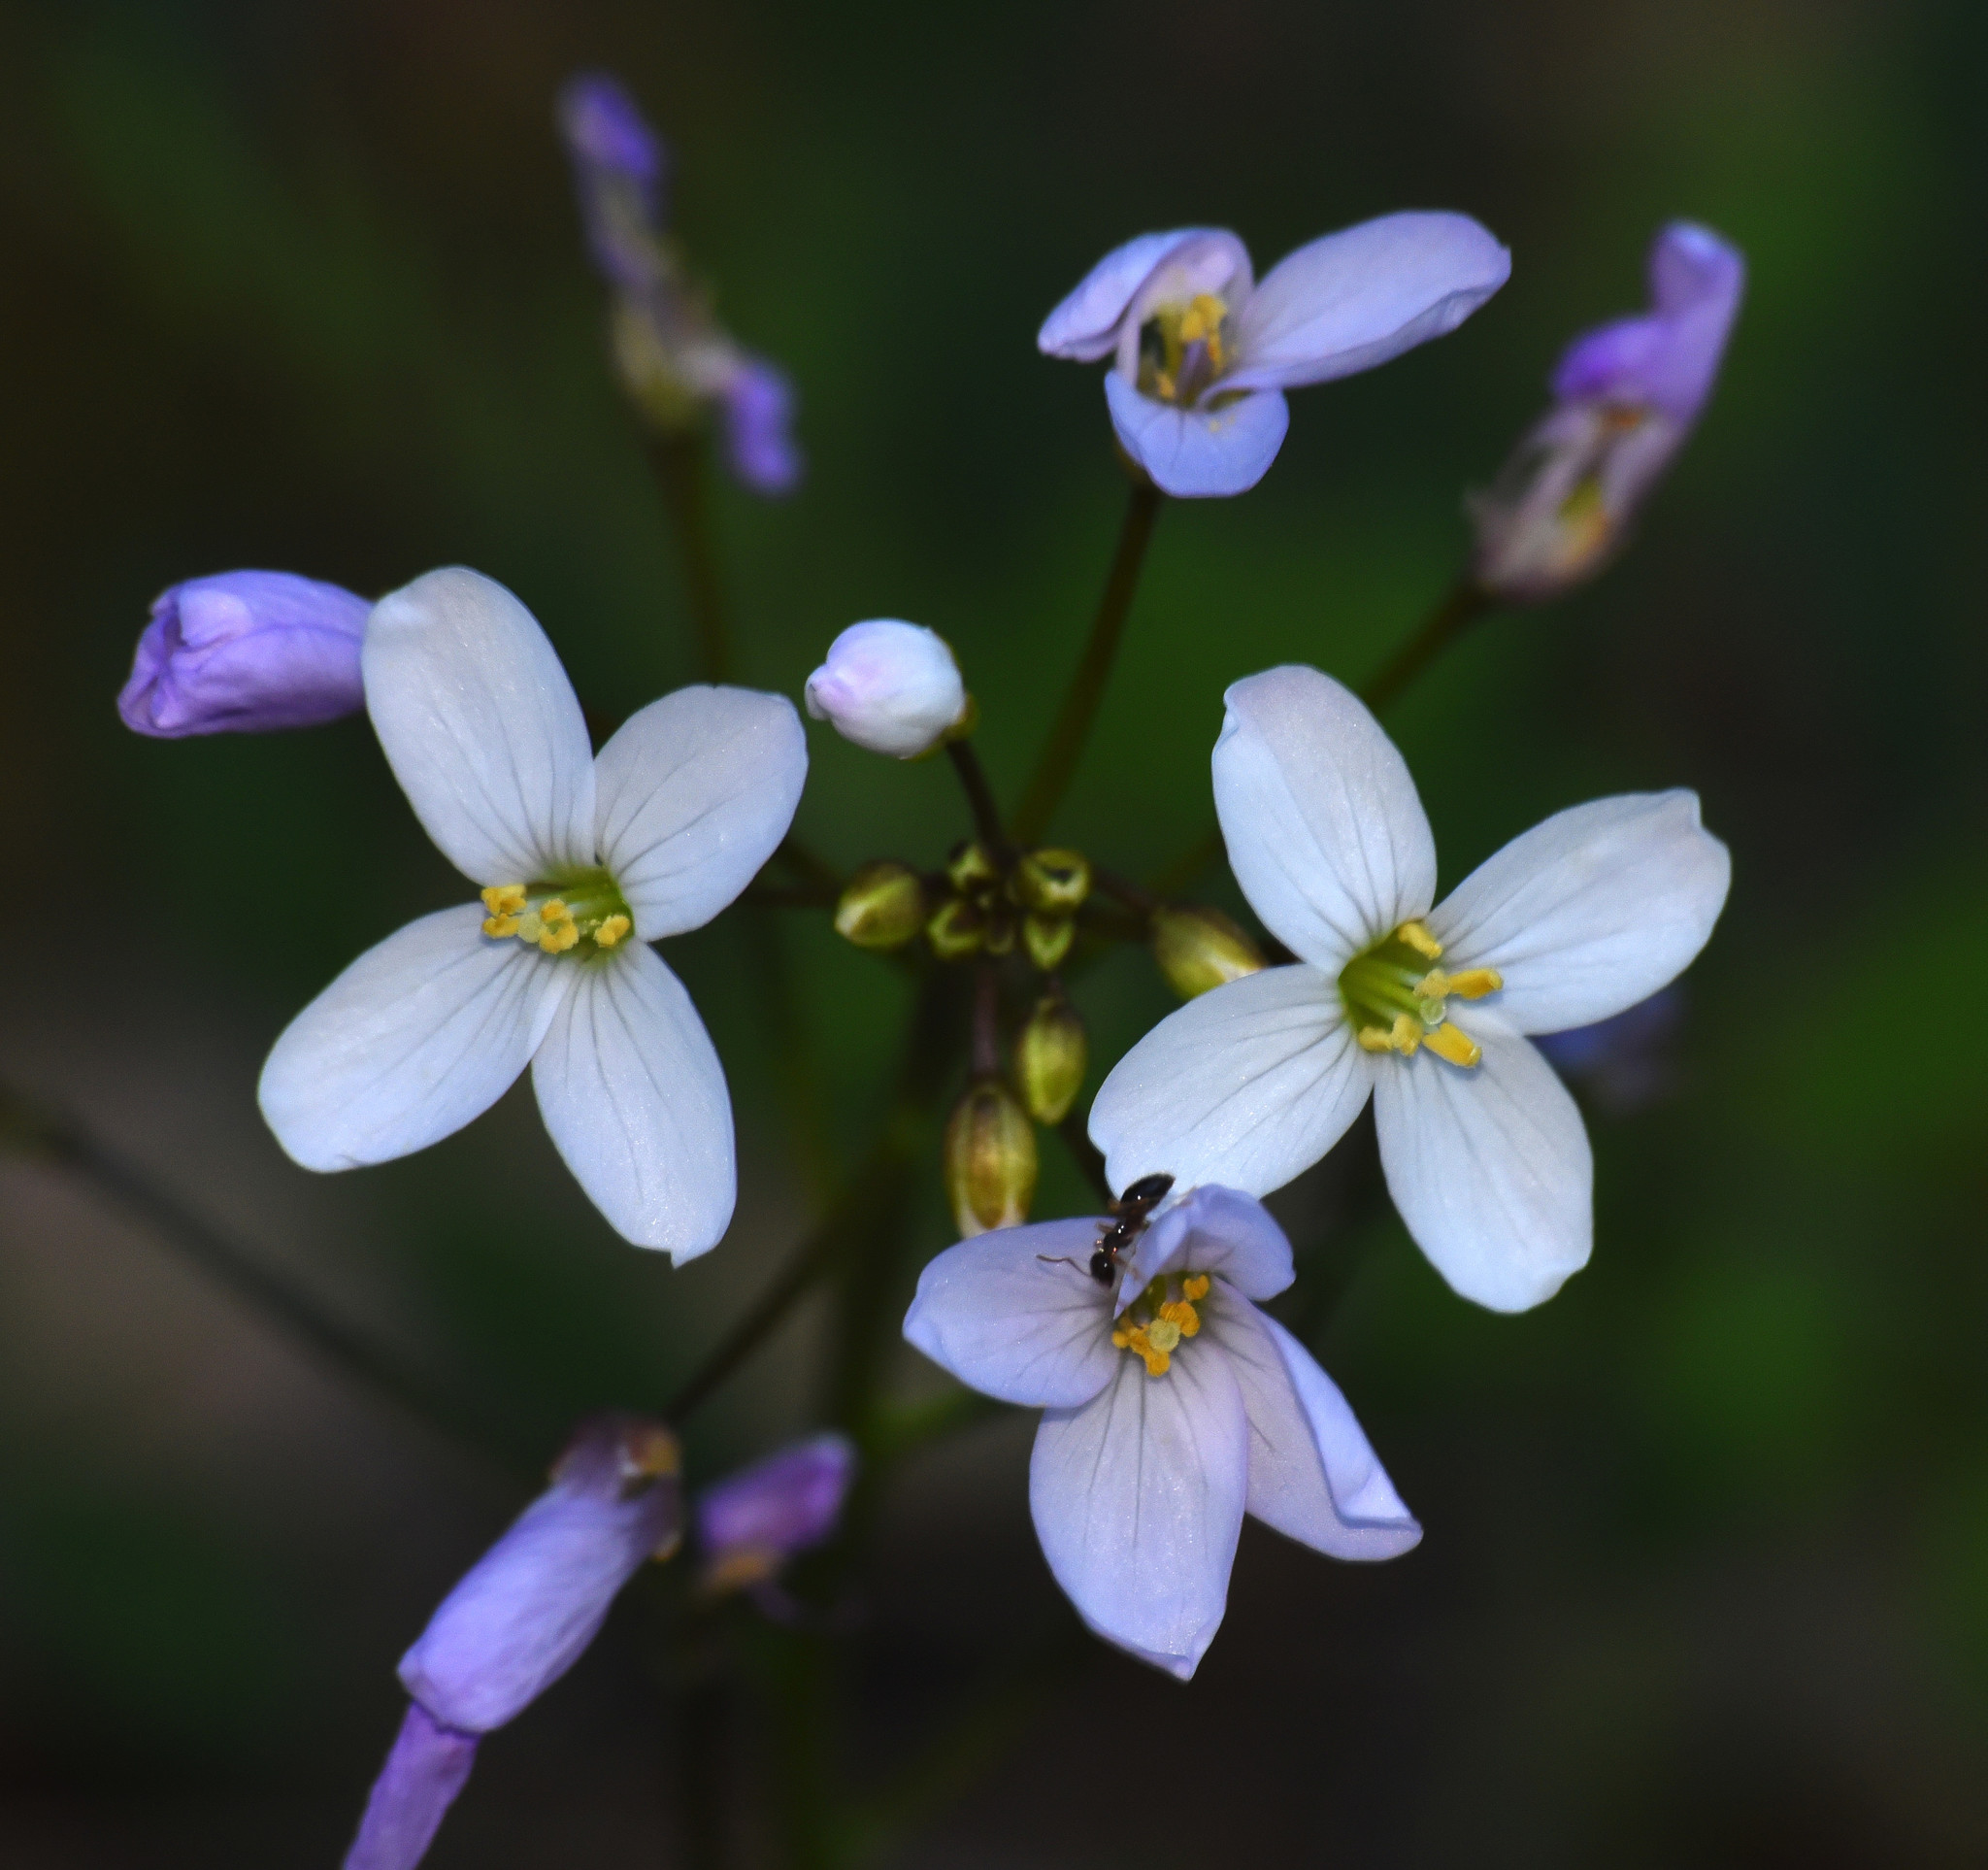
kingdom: Plantae
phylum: Tracheophyta
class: Magnoliopsida
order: Brassicales
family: Brassicaceae
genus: Cardamine
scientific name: Cardamine californica
